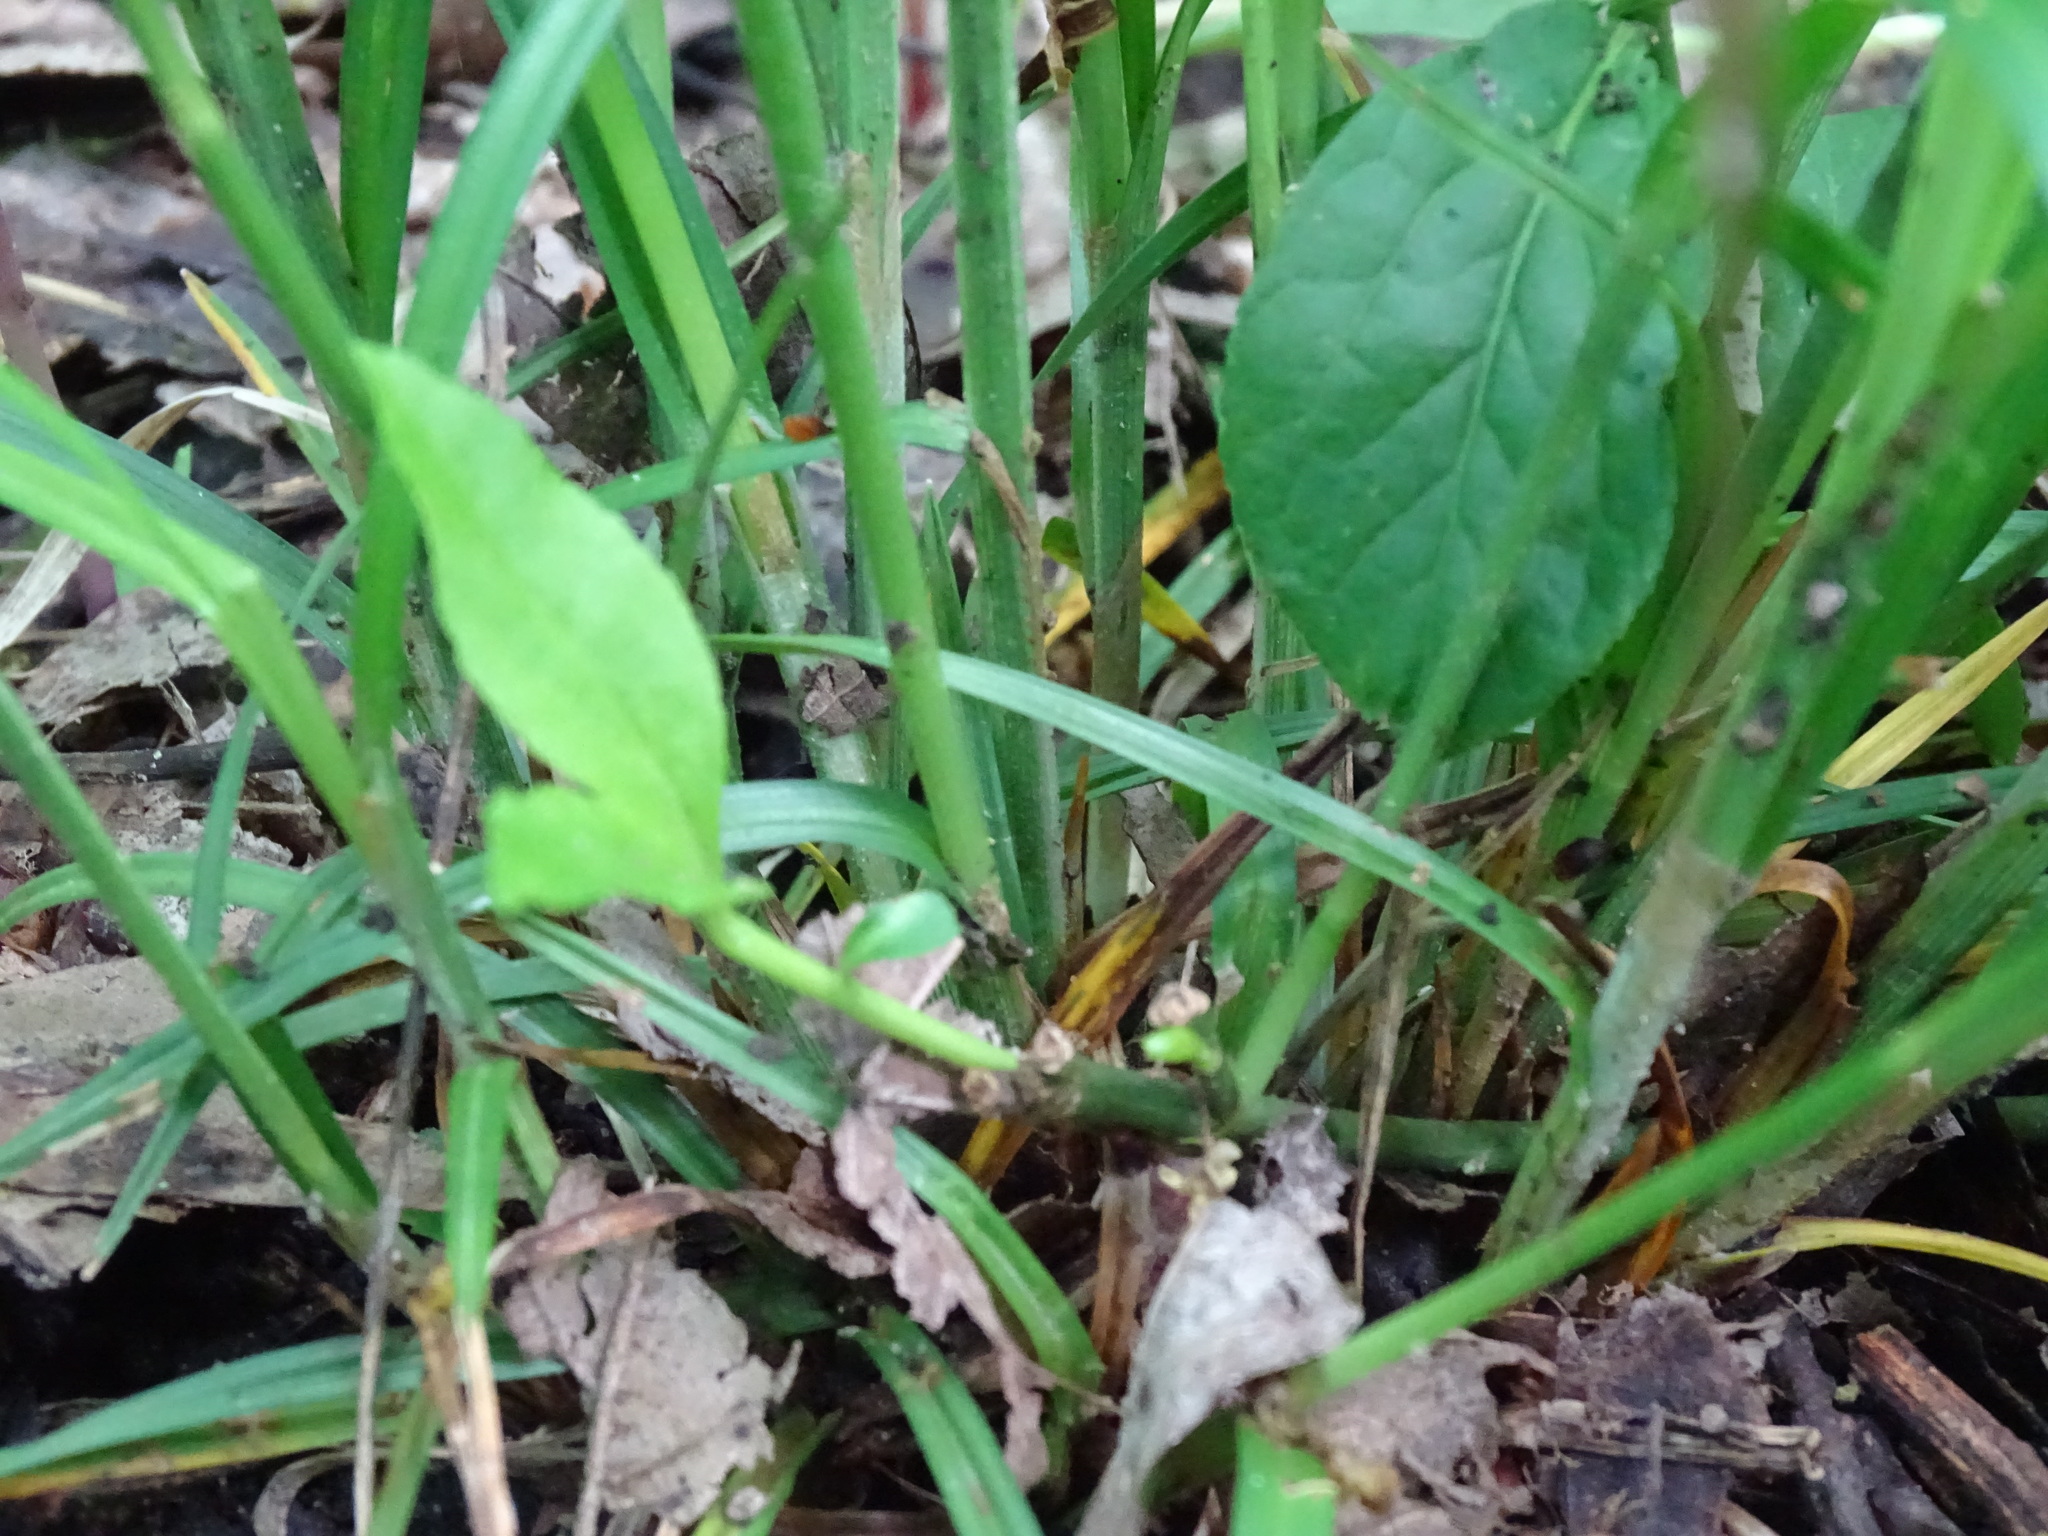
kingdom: Plantae
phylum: Tracheophyta
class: Liliopsida
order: Poales
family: Cyperaceae
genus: Carex
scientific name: Carex hitchcockiana
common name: Hairy grey sedge
